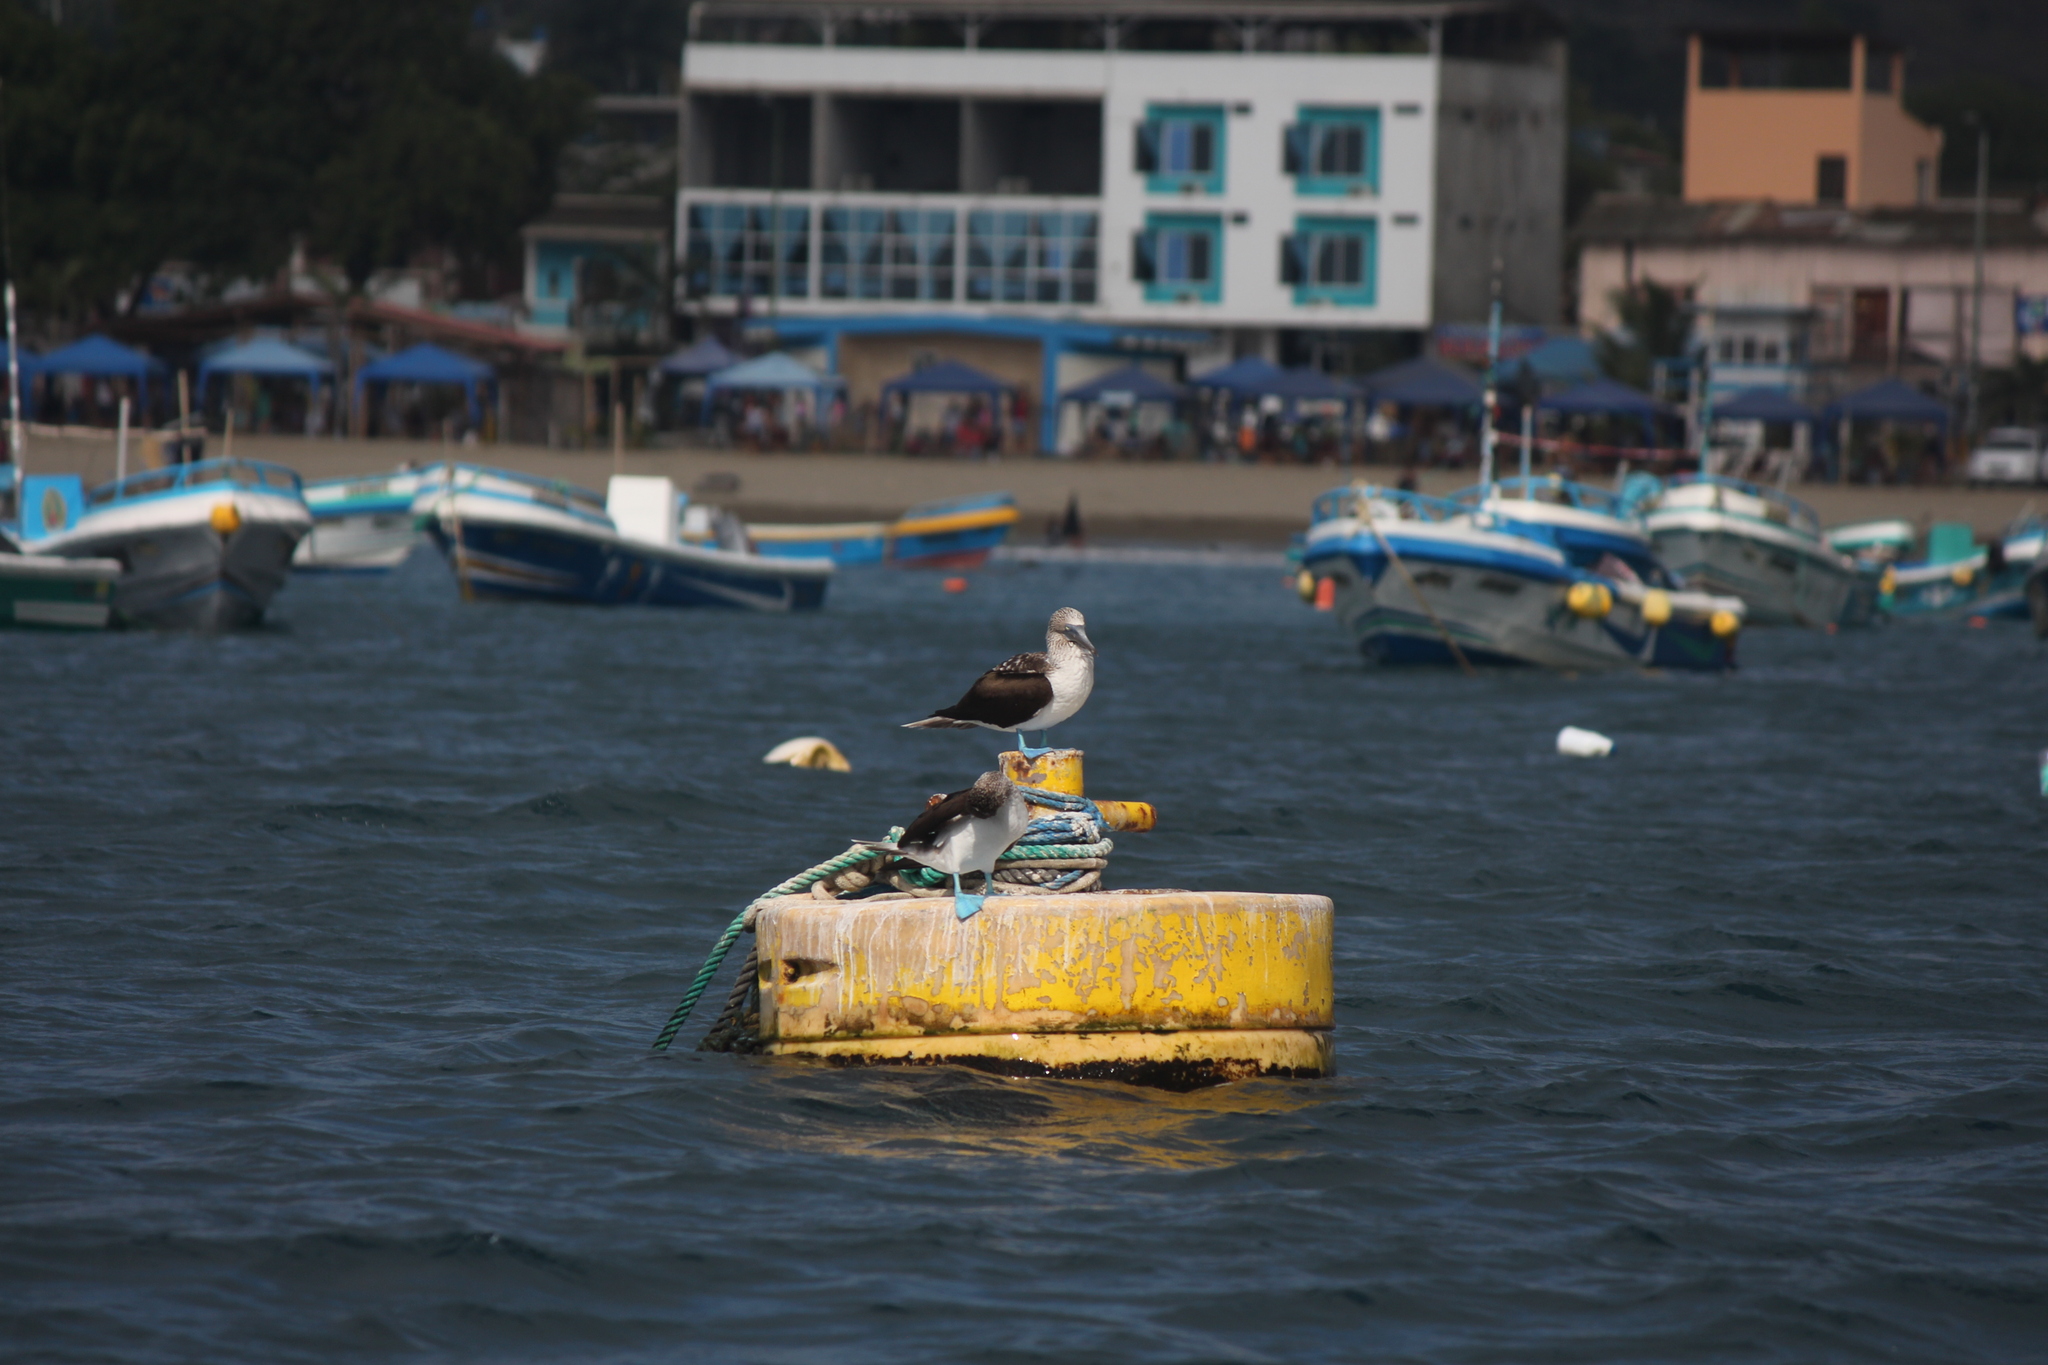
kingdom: Animalia
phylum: Chordata
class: Aves
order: Suliformes
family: Sulidae
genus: Sula
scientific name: Sula nebouxii
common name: Blue-footed booby
